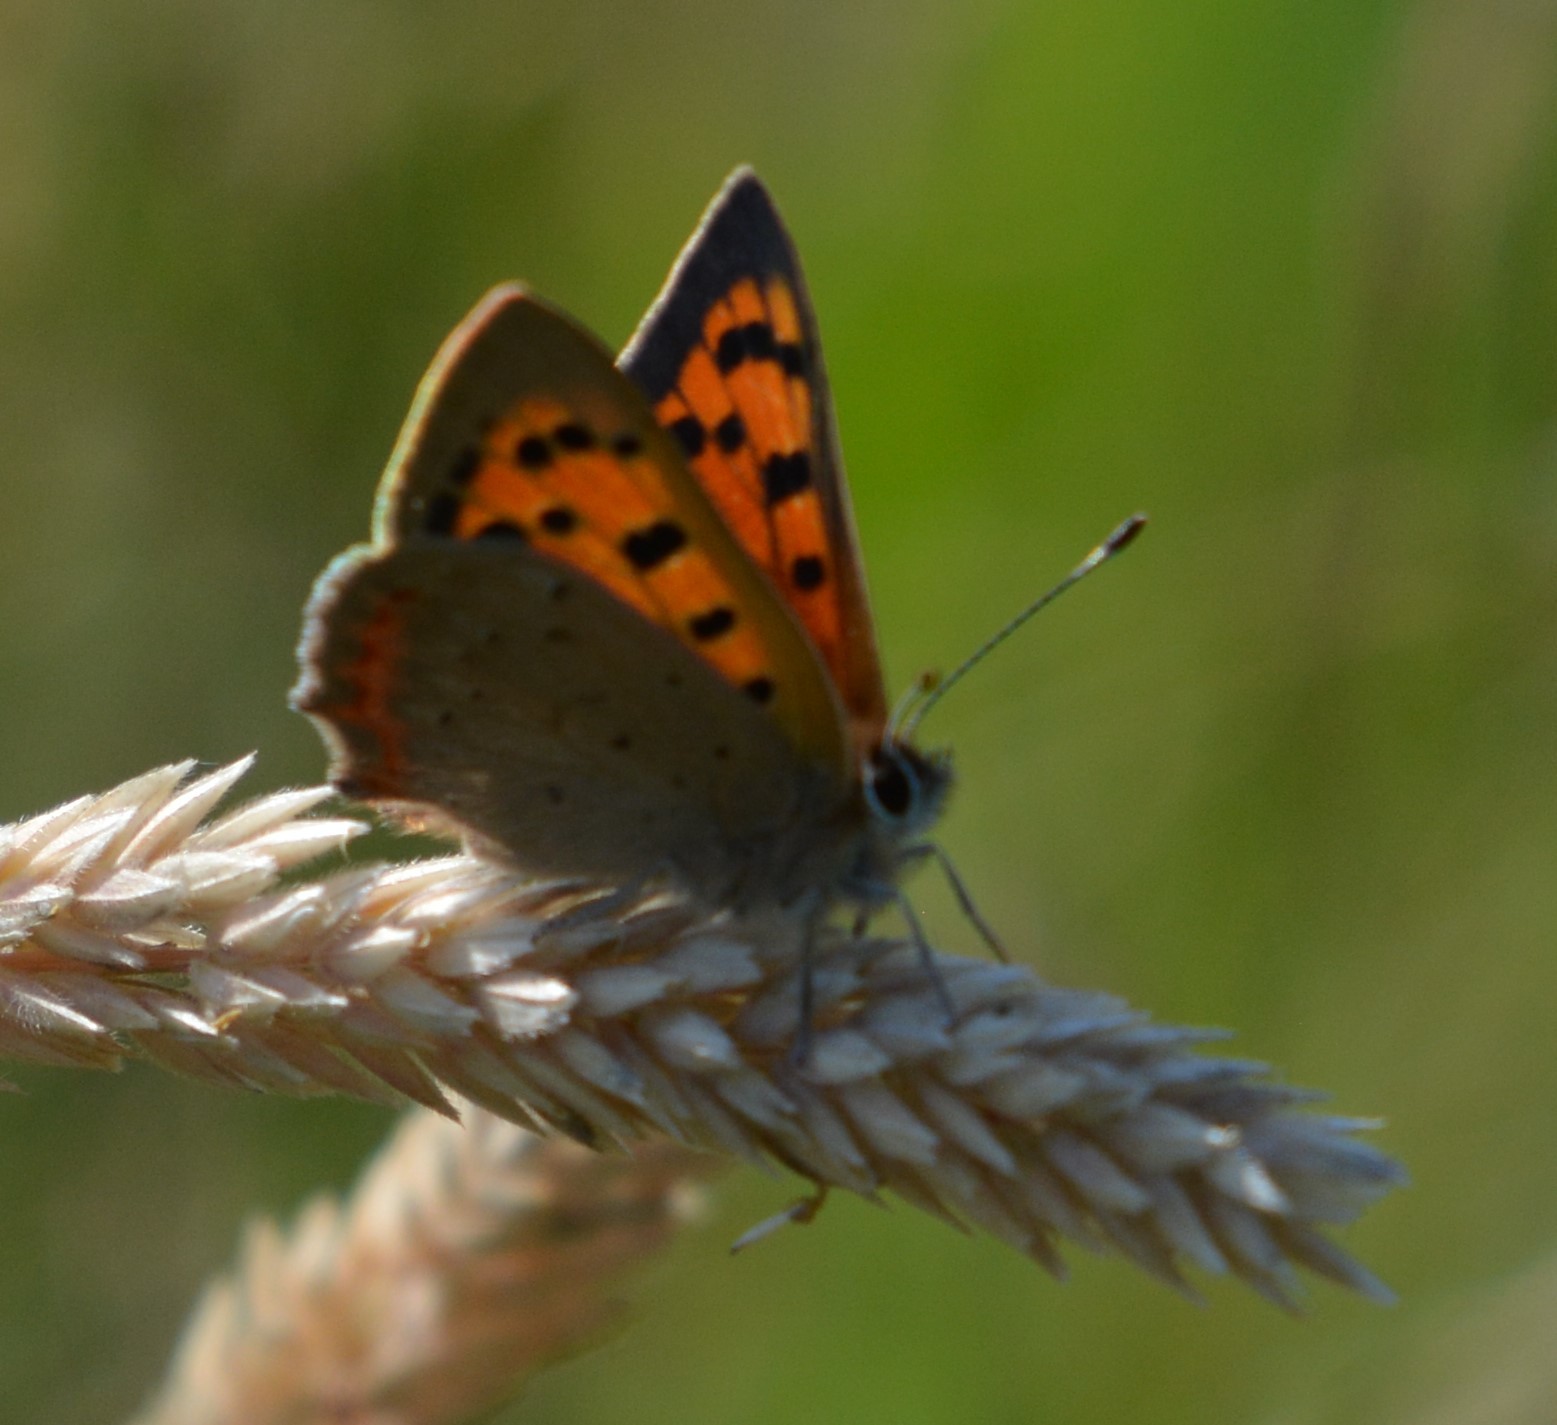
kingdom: Animalia
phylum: Arthropoda
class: Insecta
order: Lepidoptera
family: Lycaenidae
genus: Lycaena
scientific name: Lycaena phlaeas
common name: Small copper
